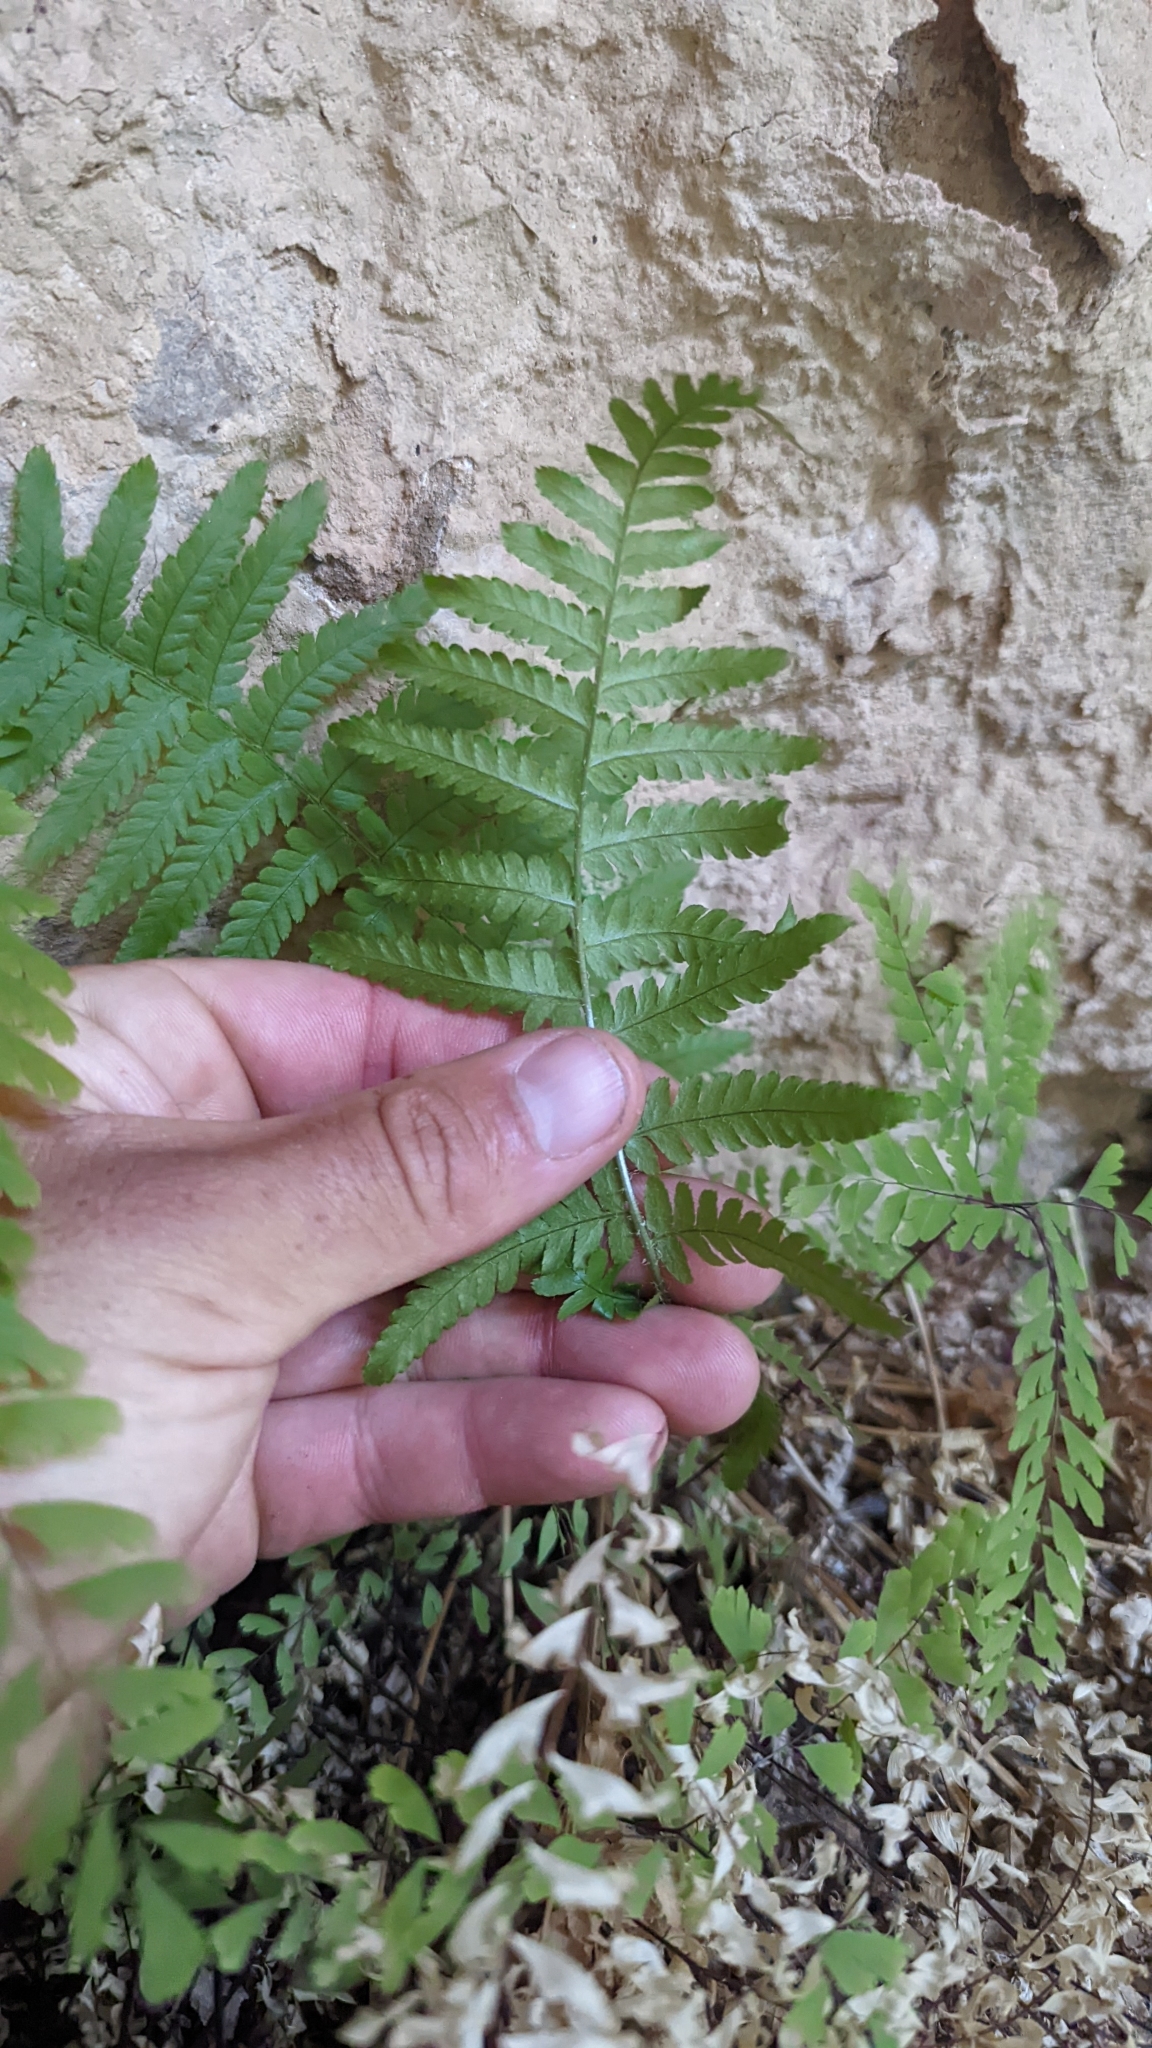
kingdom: Plantae
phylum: Tracheophyta
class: Polypodiopsida
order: Polypodiales
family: Dryopteridaceae
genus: Dryopteris
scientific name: Dryopteris filix-mas
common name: Male fern
